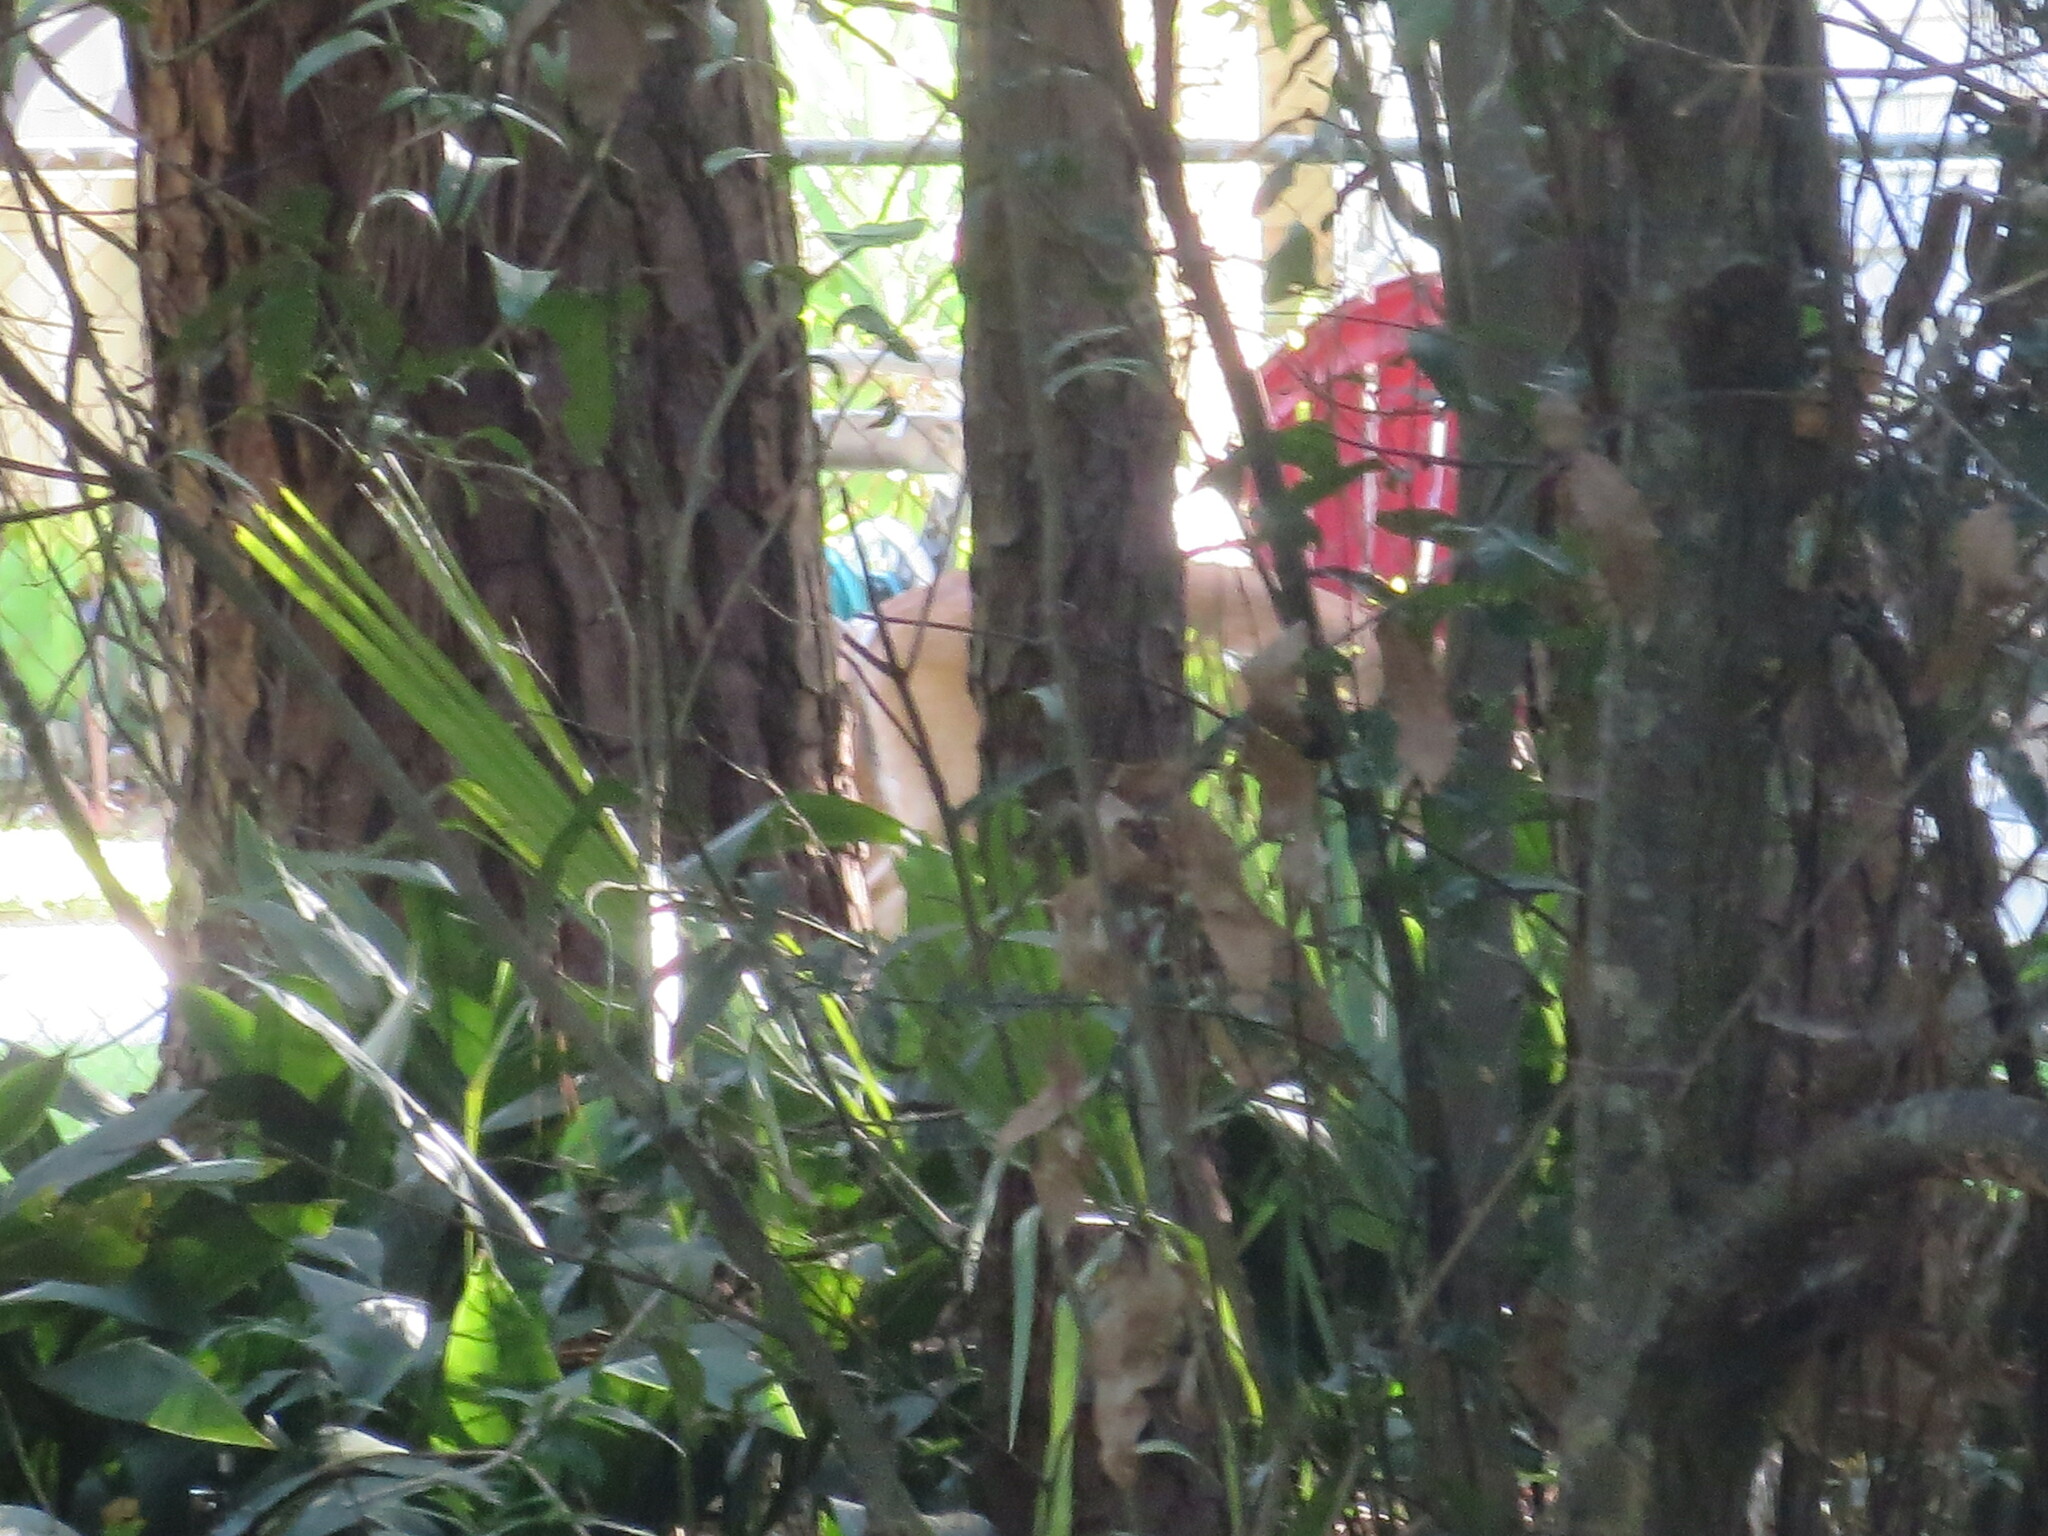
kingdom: Animalia
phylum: Chordata
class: Mammalia
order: Artiodactyla
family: Cervidae
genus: Odocoileus
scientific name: Odocoileus virginianus
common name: White-tailed deer
